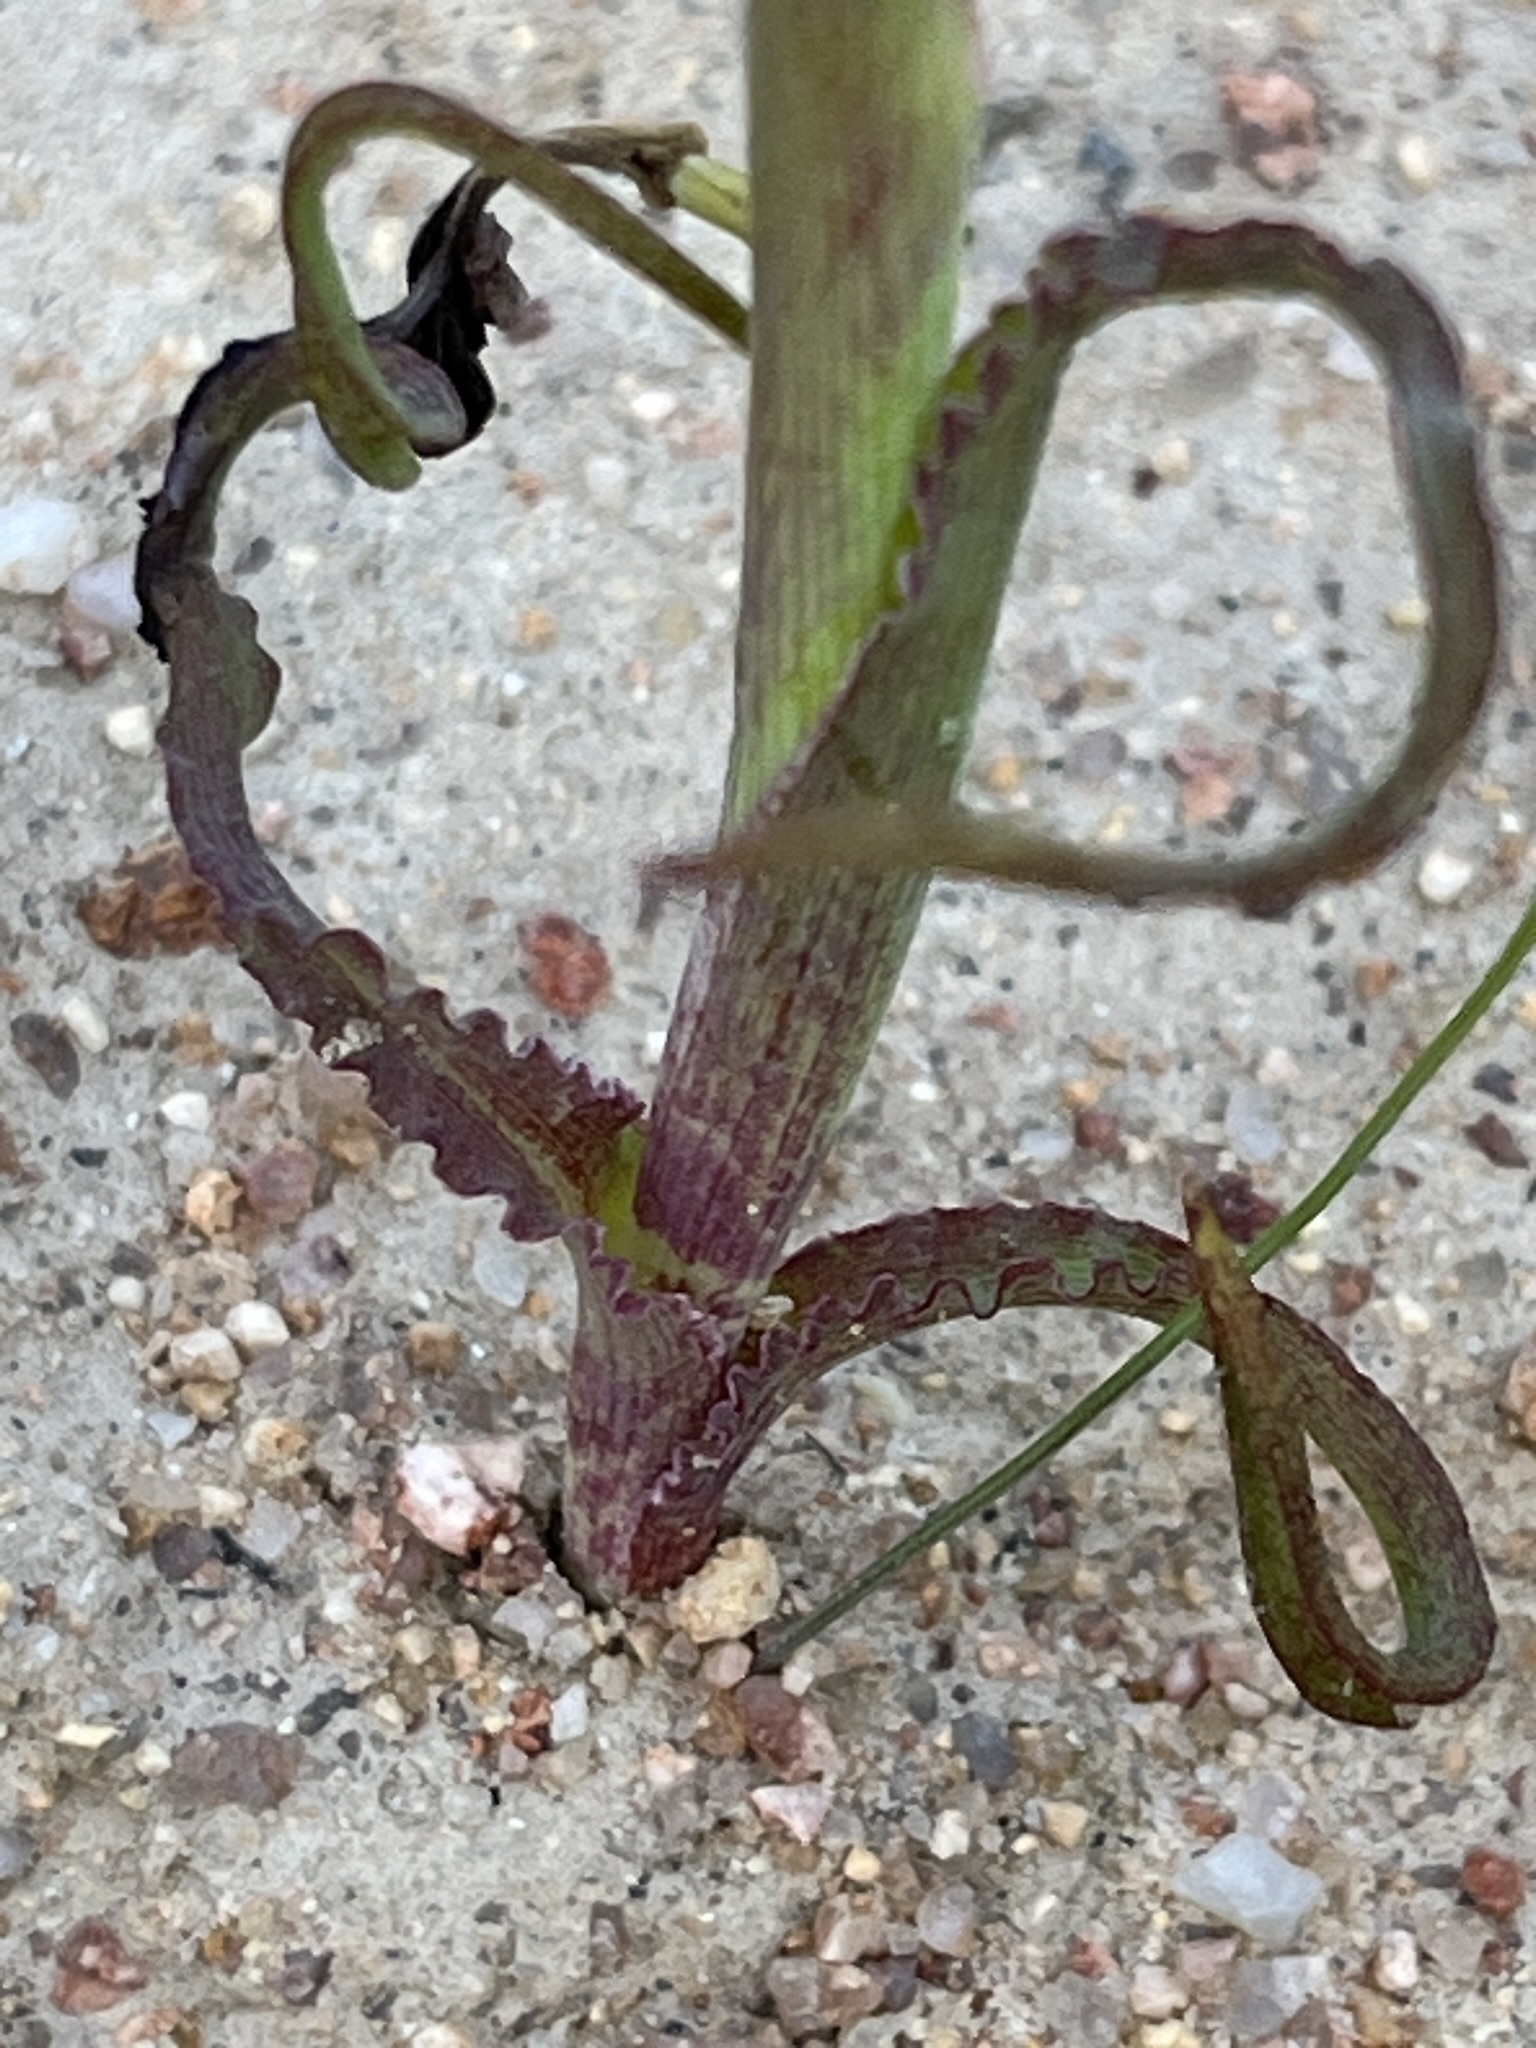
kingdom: Plantae
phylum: Tracheophyta
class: Liliopsida
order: Asparagales
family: Iridaceae
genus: Moraea
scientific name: Moraea ciliata
